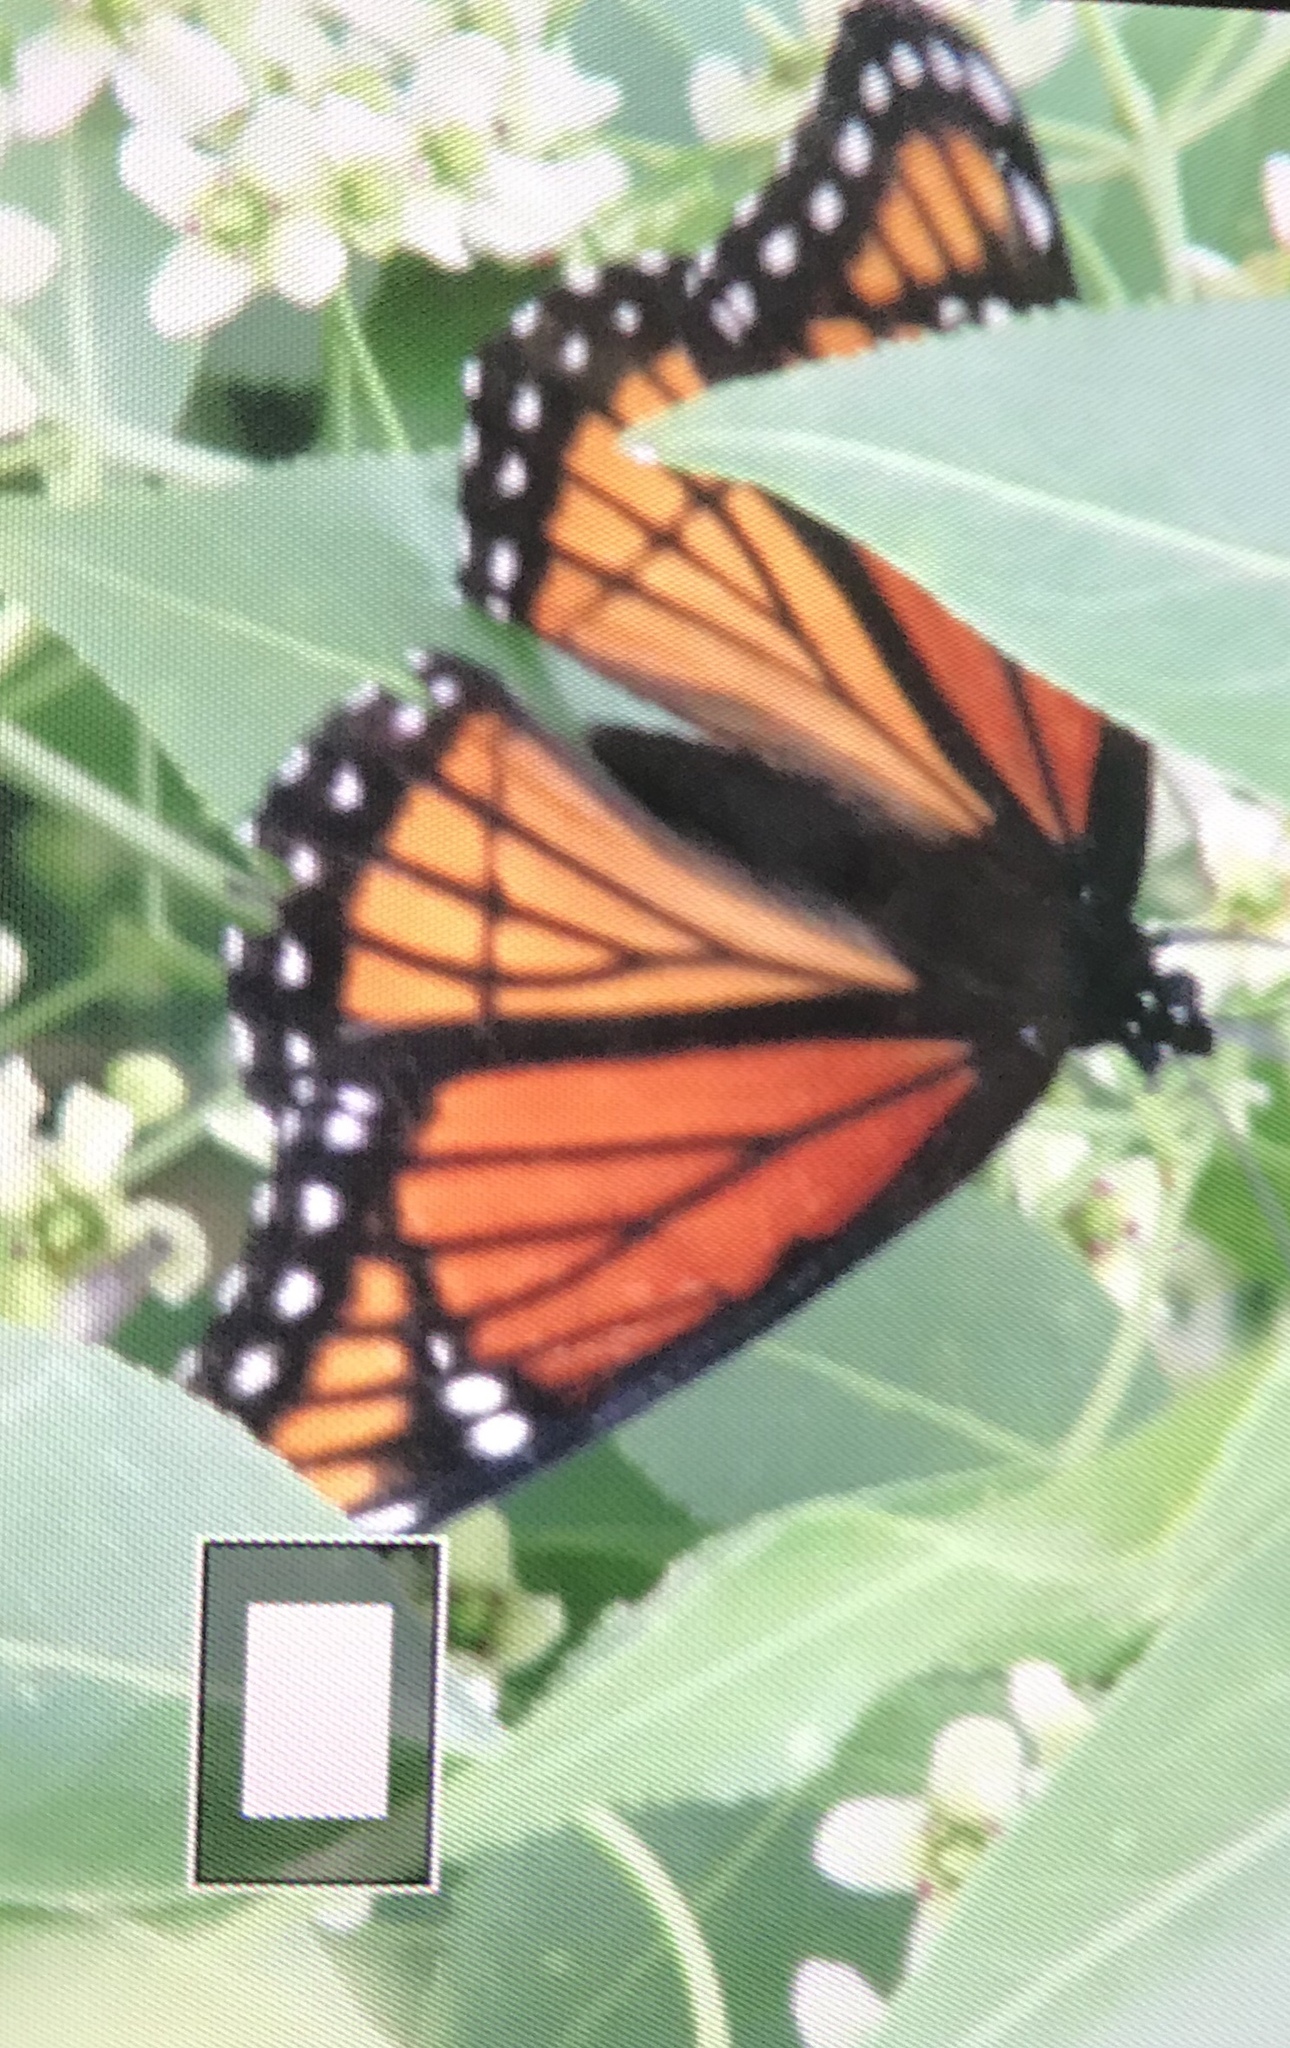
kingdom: Animalia
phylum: Arthropoda
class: Insecta
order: Lepidoptera
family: Nymphalidae
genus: Limenitis
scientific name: Limenitis archippus
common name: Viceroy
